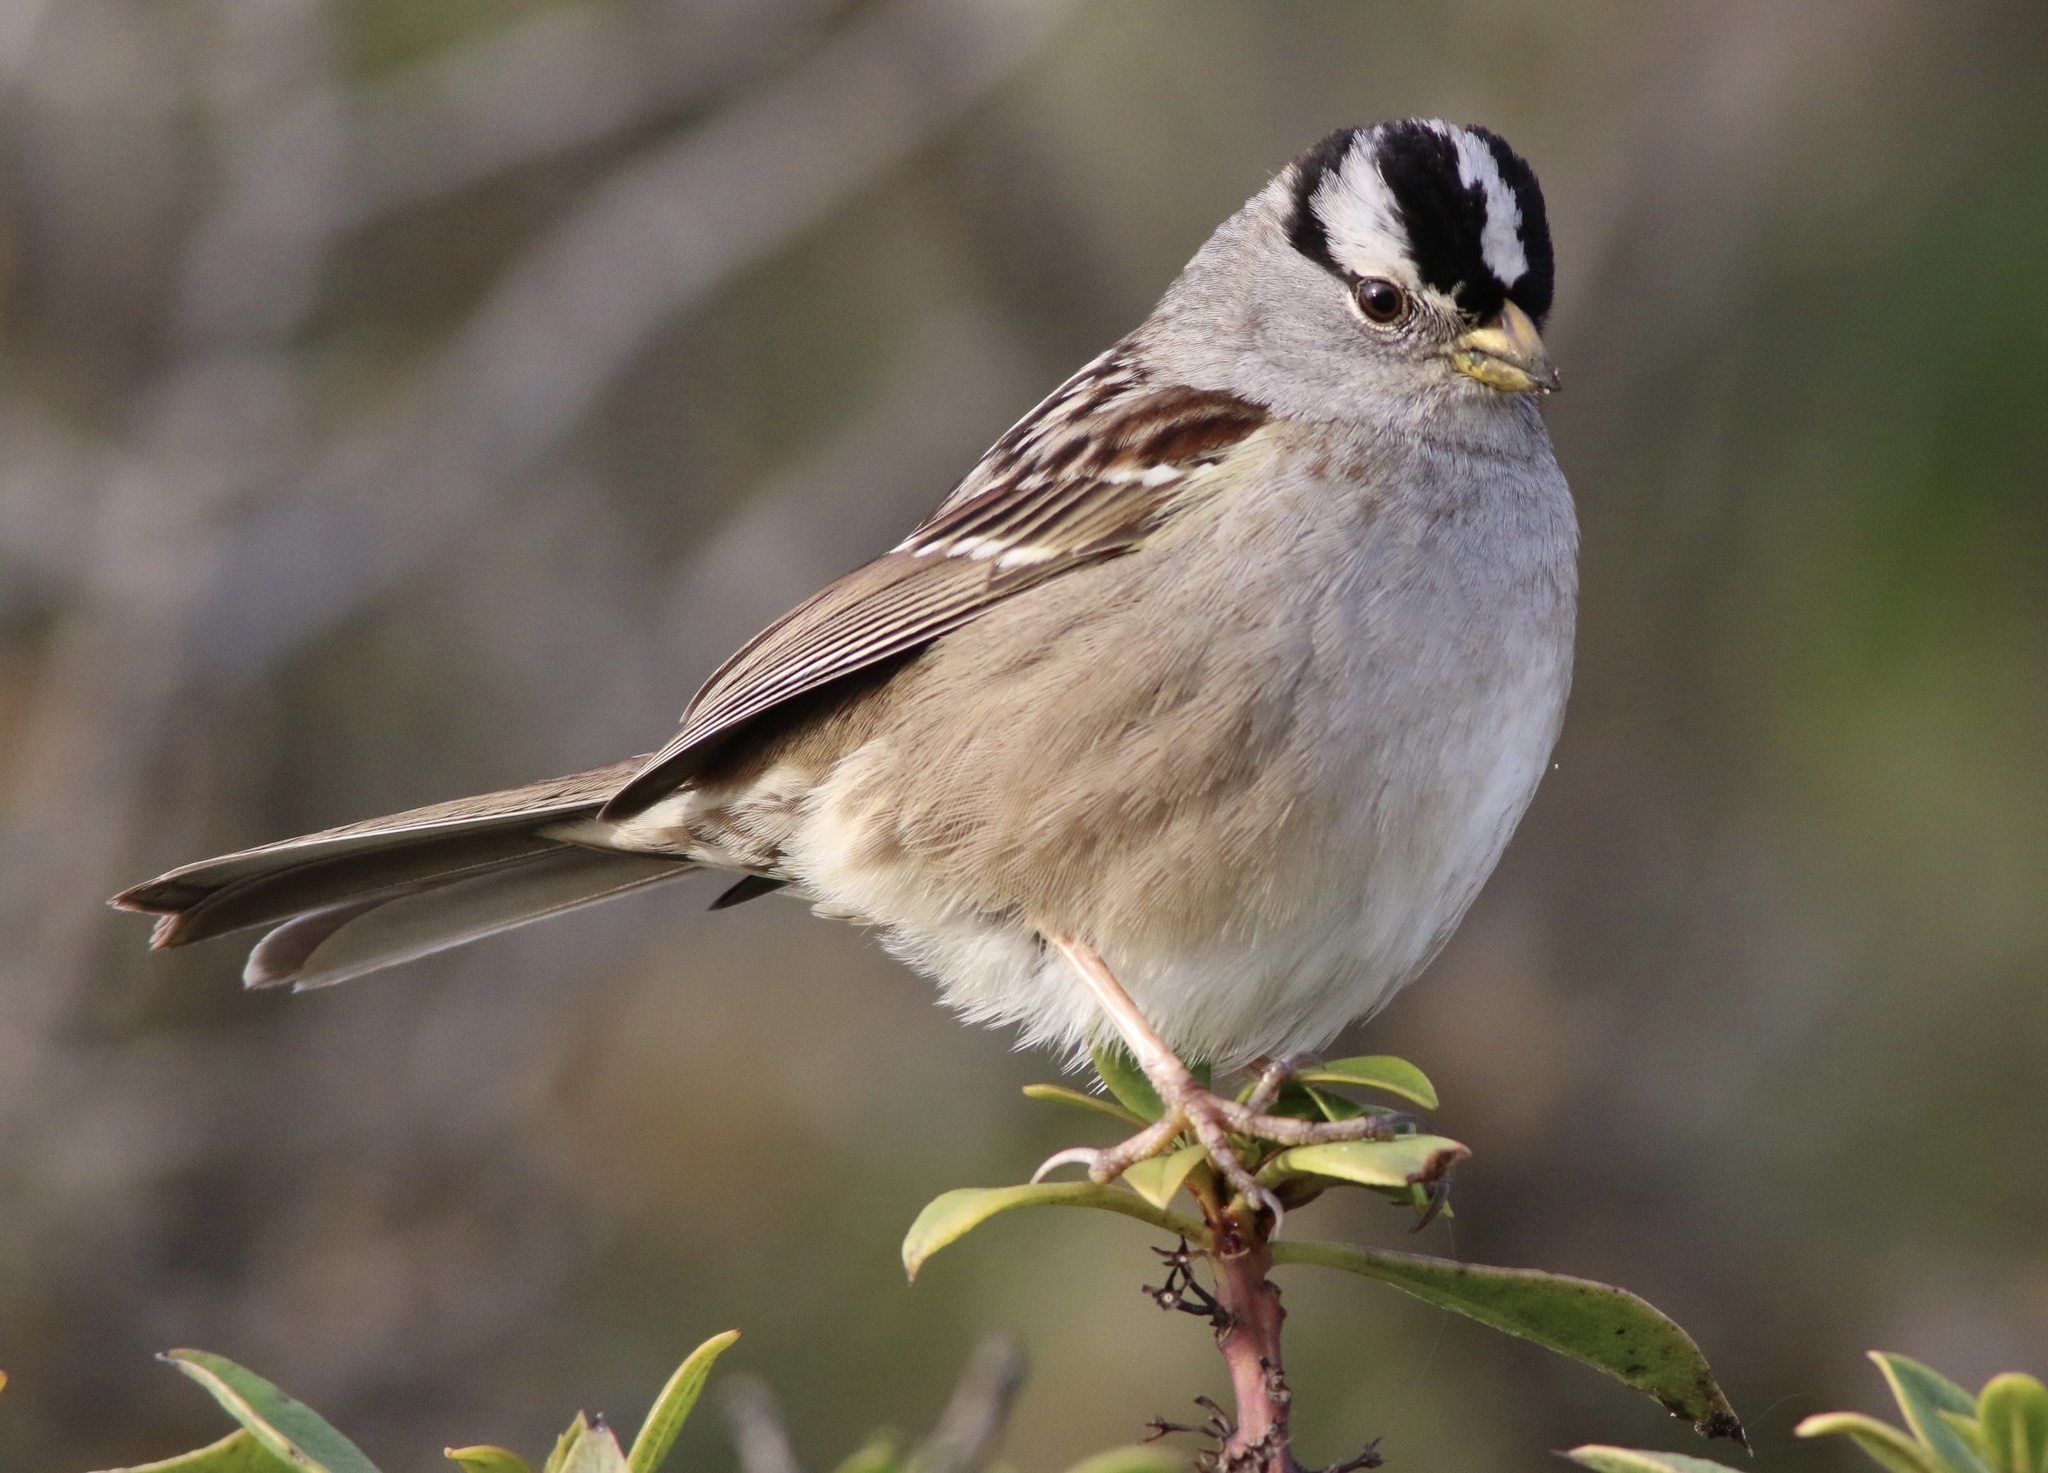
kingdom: Animalia
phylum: Chordata
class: Aves
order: Passeriformes
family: Passerellidae
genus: Zonotrichia
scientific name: Zonotrichia leucophrys
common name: White-crowned sparrow
